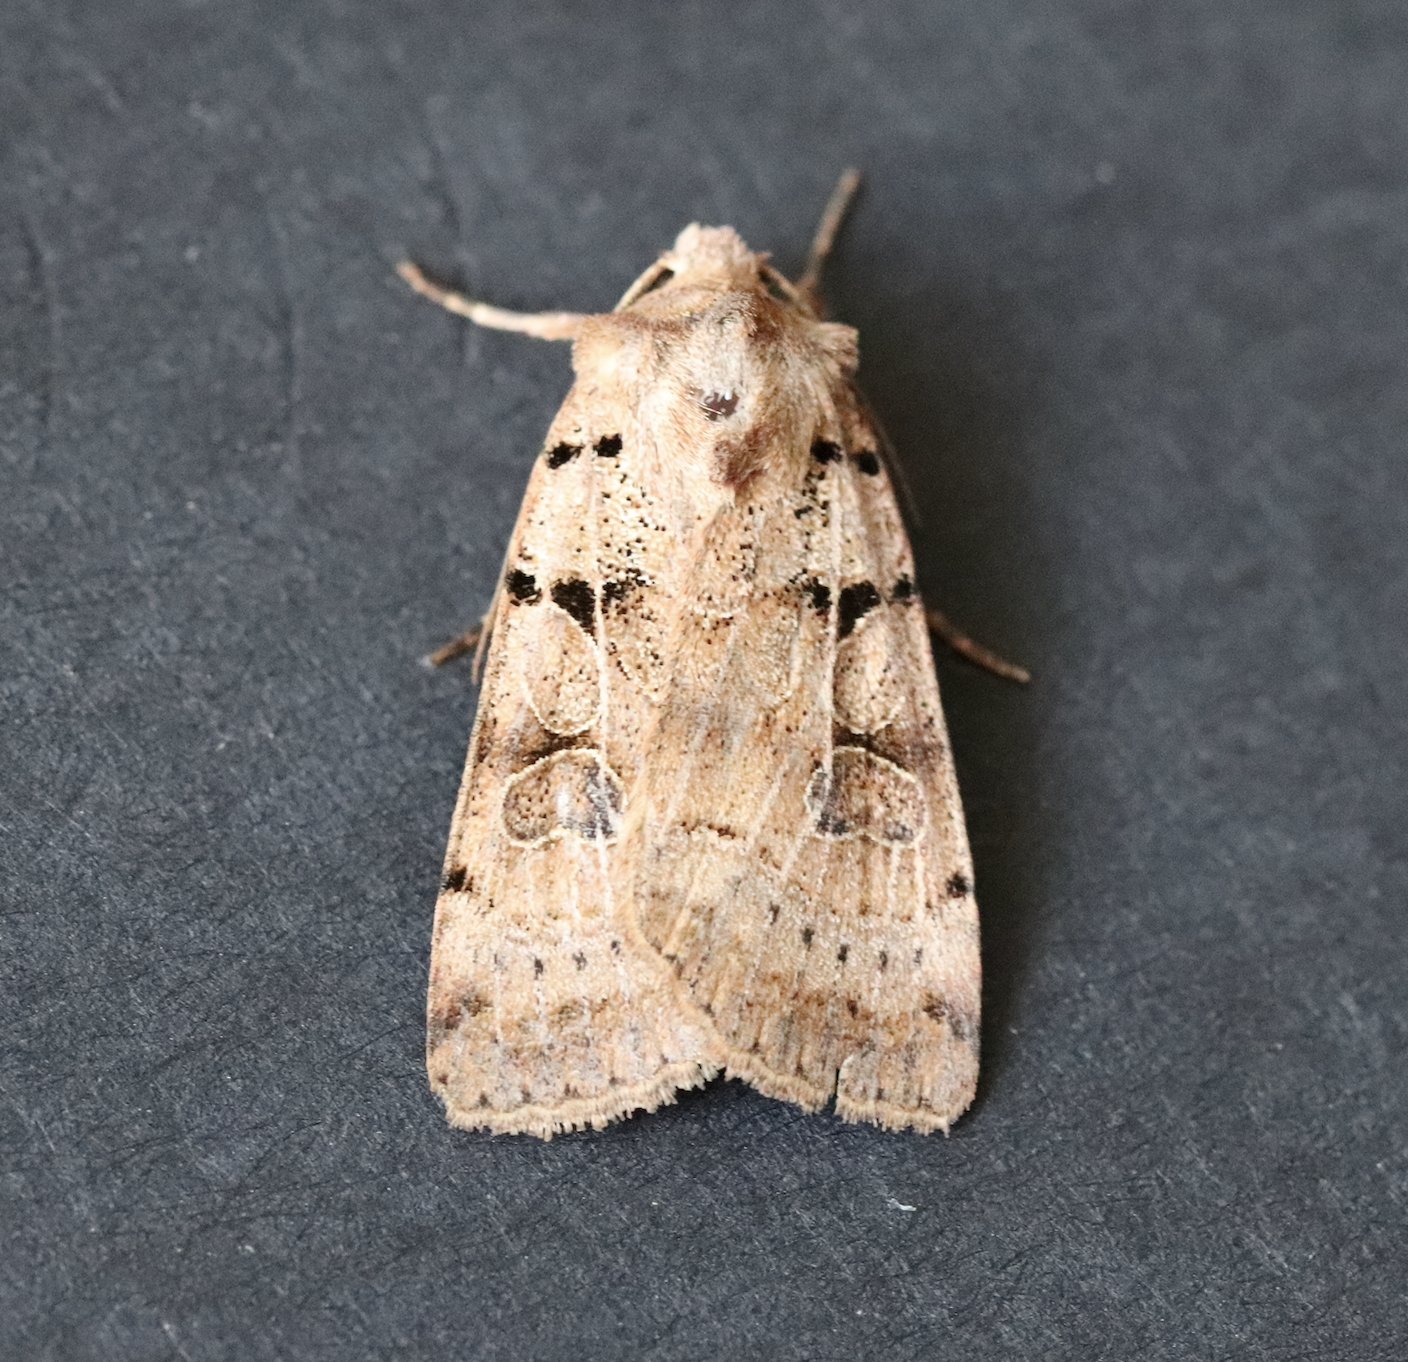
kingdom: Animalia
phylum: Arthropoda
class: Insecta
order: Lepidoptera
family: Noctuidae
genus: Eugnorisma
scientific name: Eugnorisma depuncta
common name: Plain clay
